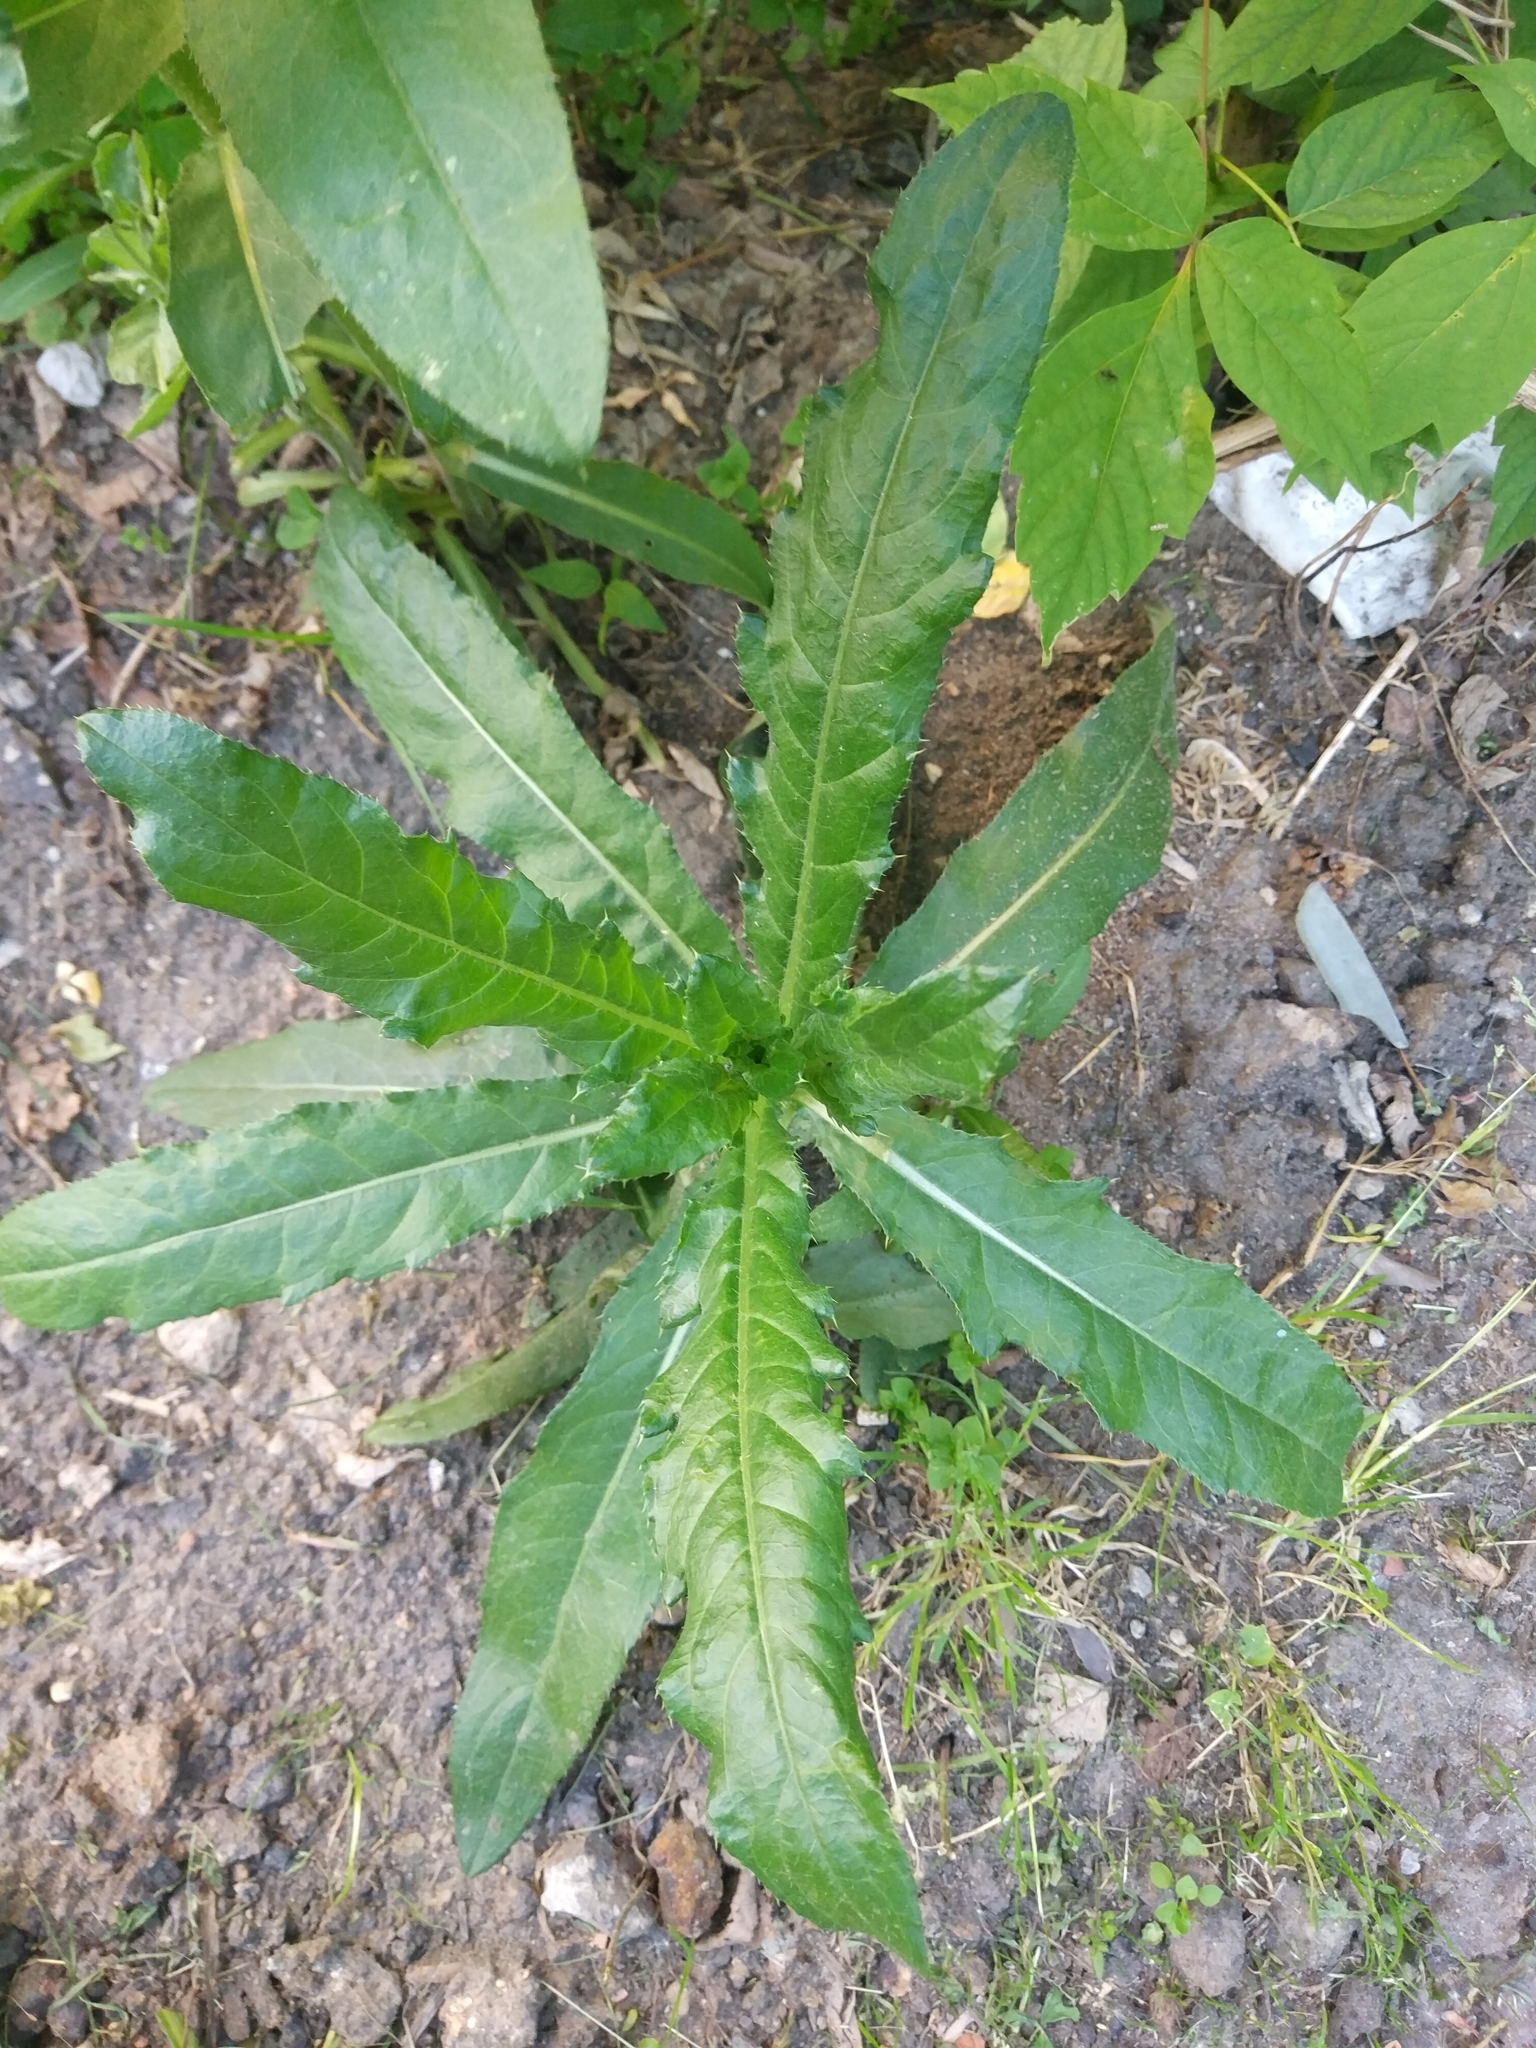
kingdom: Plantae
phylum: Tracheophyta
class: Magnoliopsida
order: Asterales
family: Asteraceae
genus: Cirsium
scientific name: Cirsium arvense
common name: Creeping thistle
